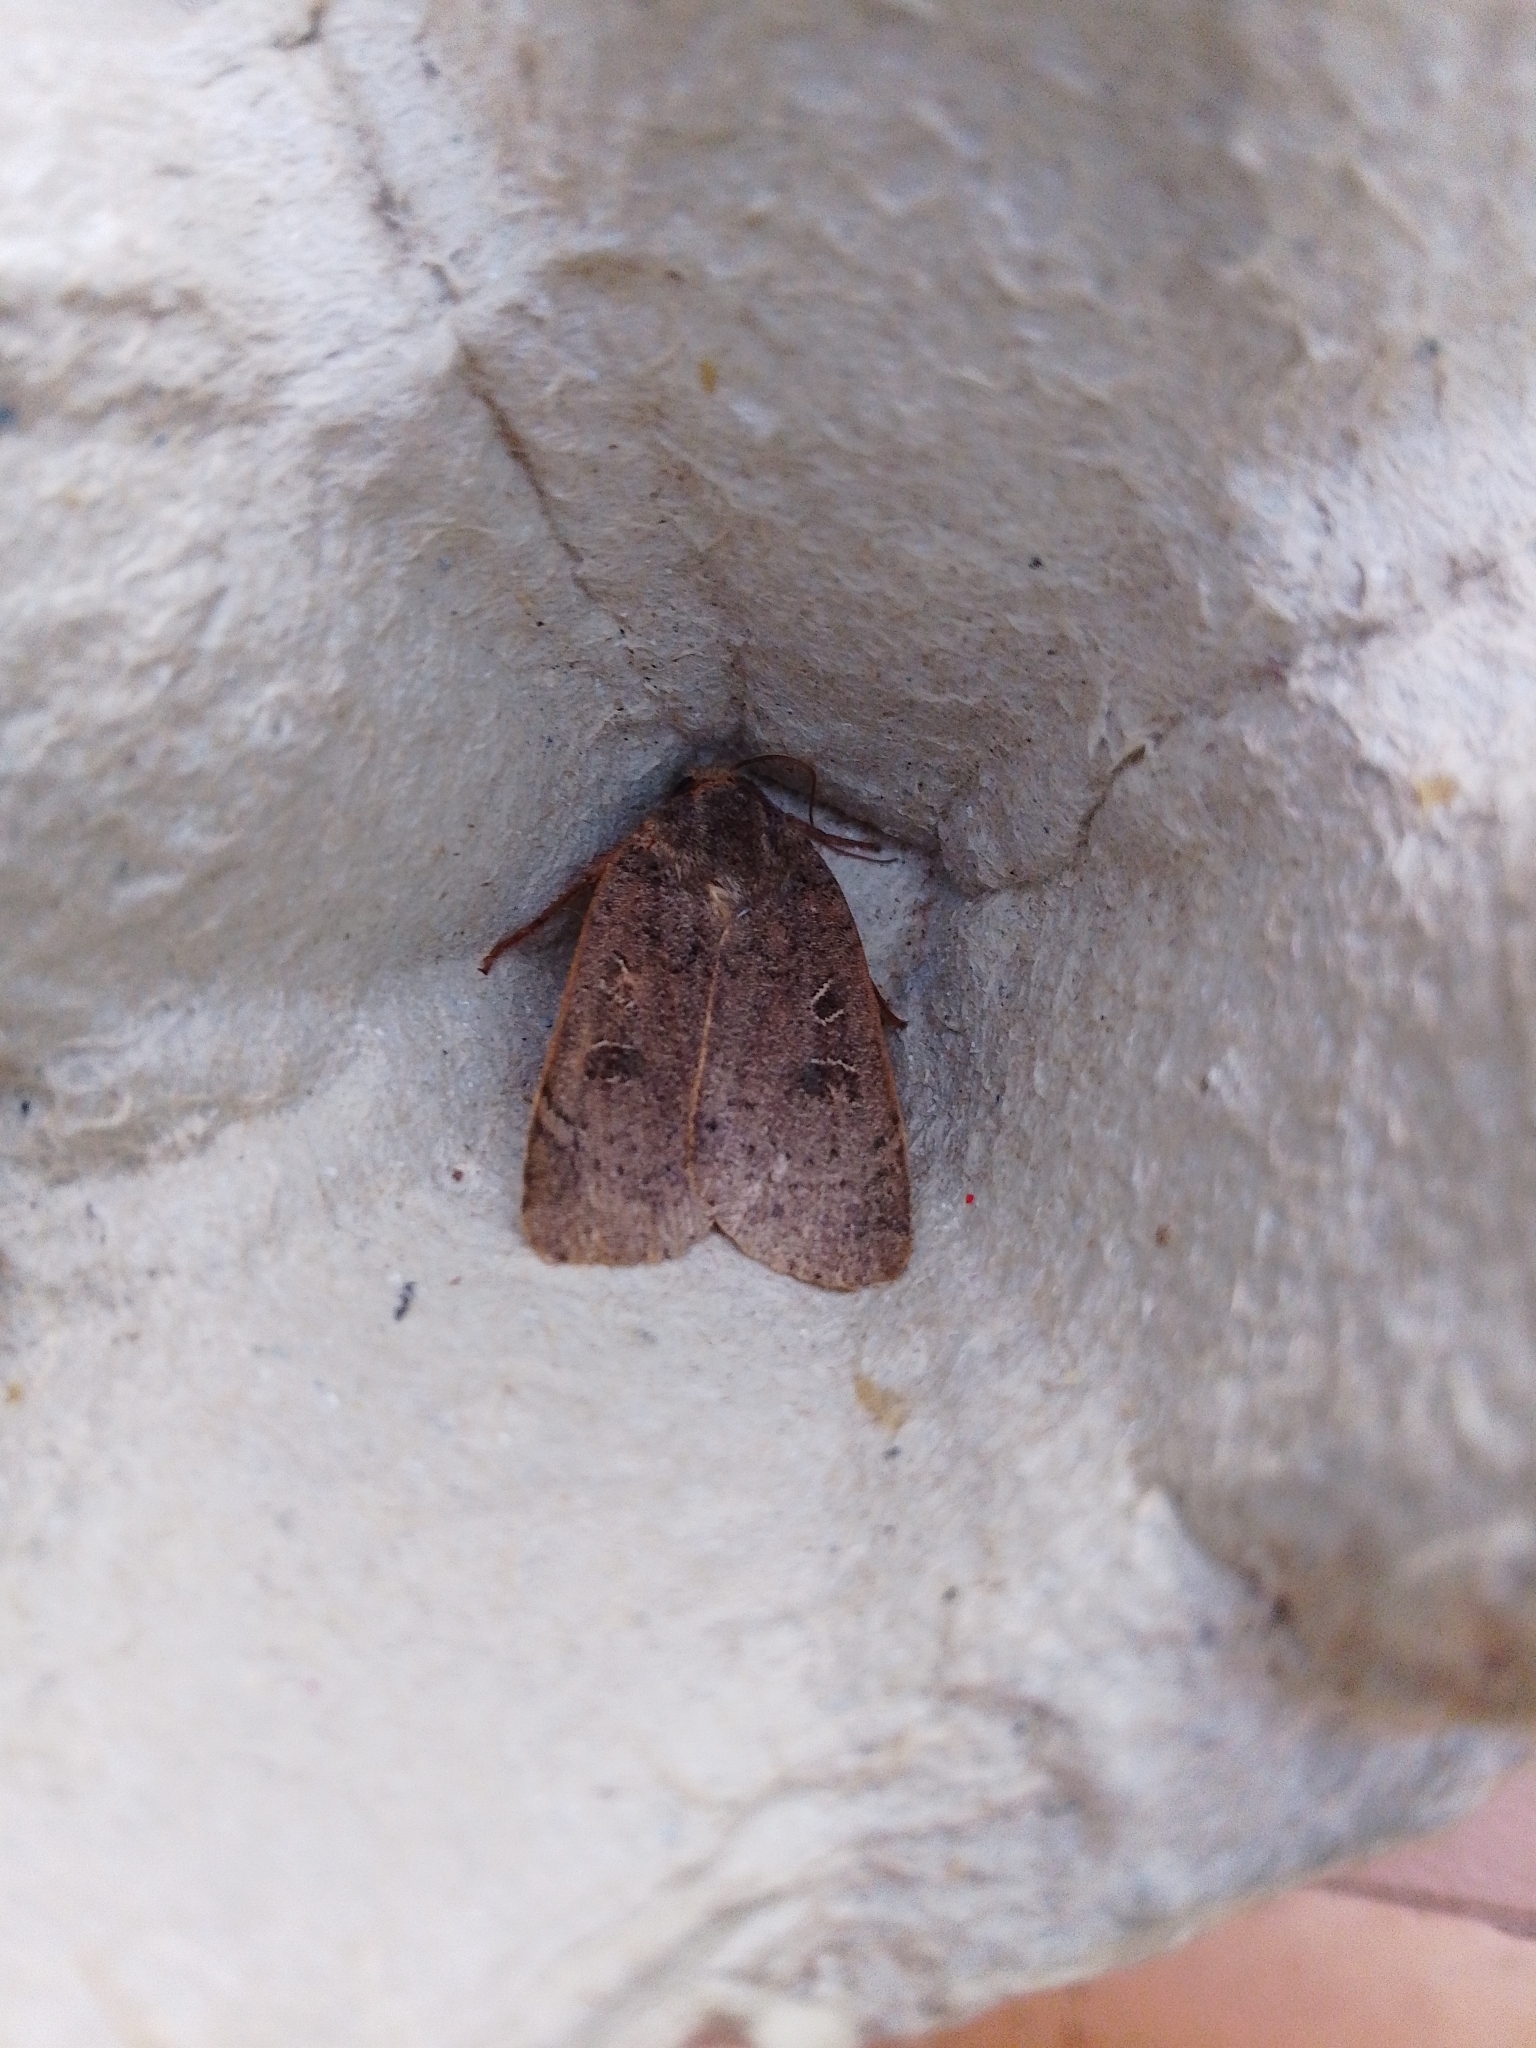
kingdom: Animalia
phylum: Arthropoda
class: Insecta
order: Lepidoptera
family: Noctuidae
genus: Noctua
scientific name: Noctua comes
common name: Lesser yellow underwing
